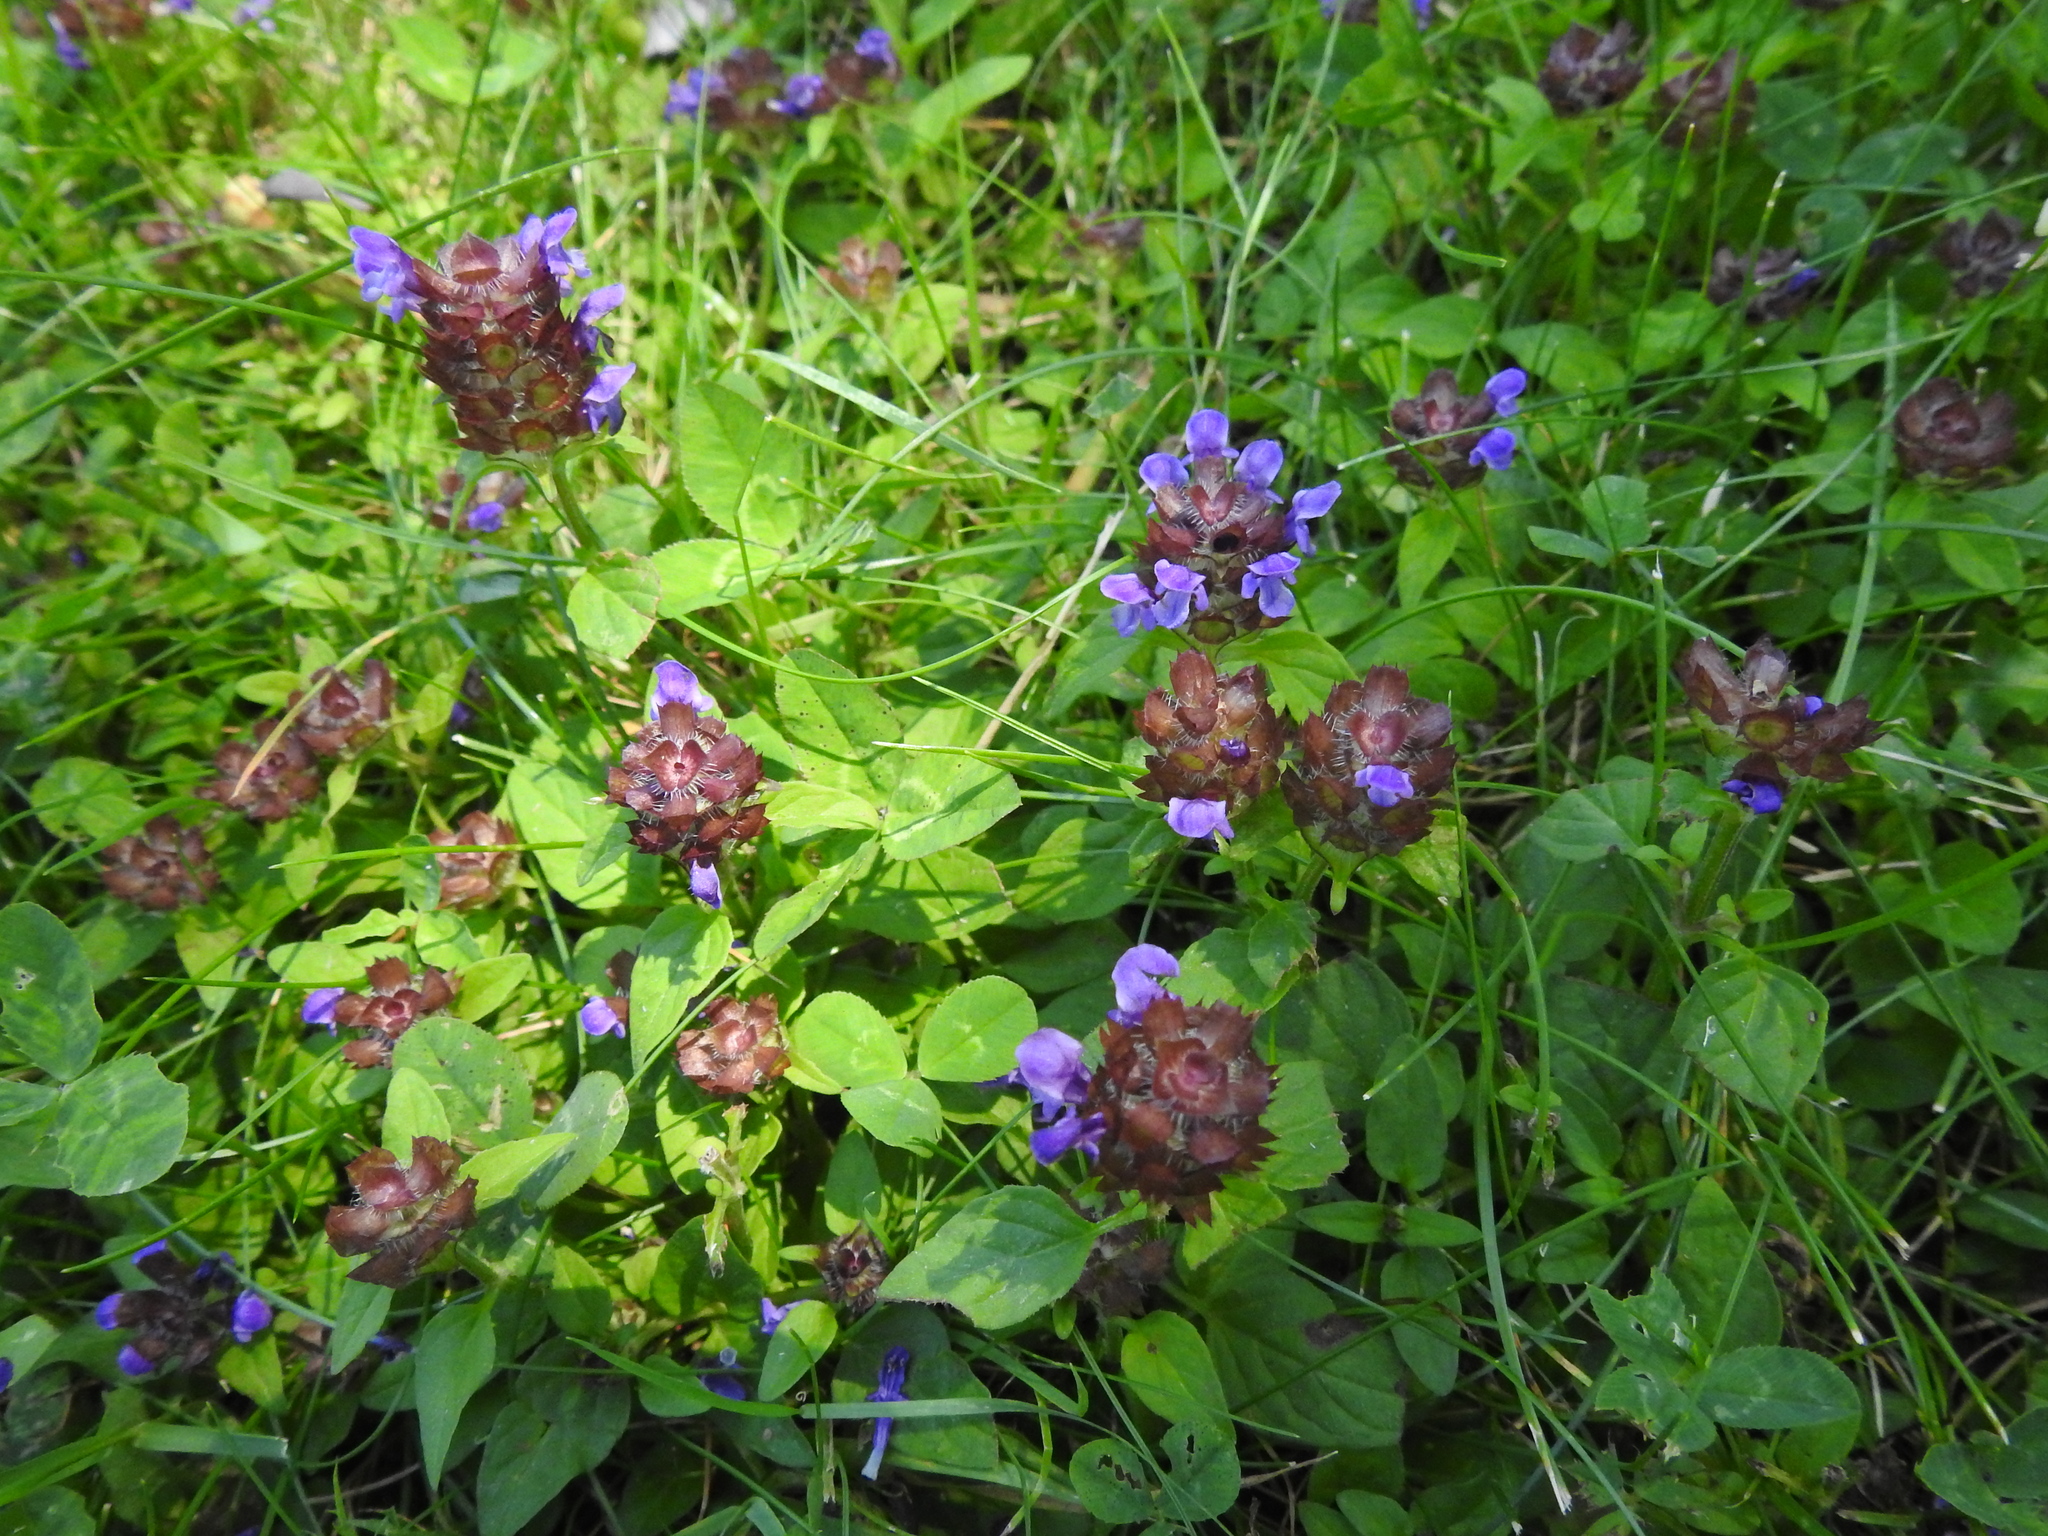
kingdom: Plantae
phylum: Tracheophyta
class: Magnoliopsida
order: Lamiales
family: Lamiaceae
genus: Prunella
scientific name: Prunella vulgaris
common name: Heal-all
